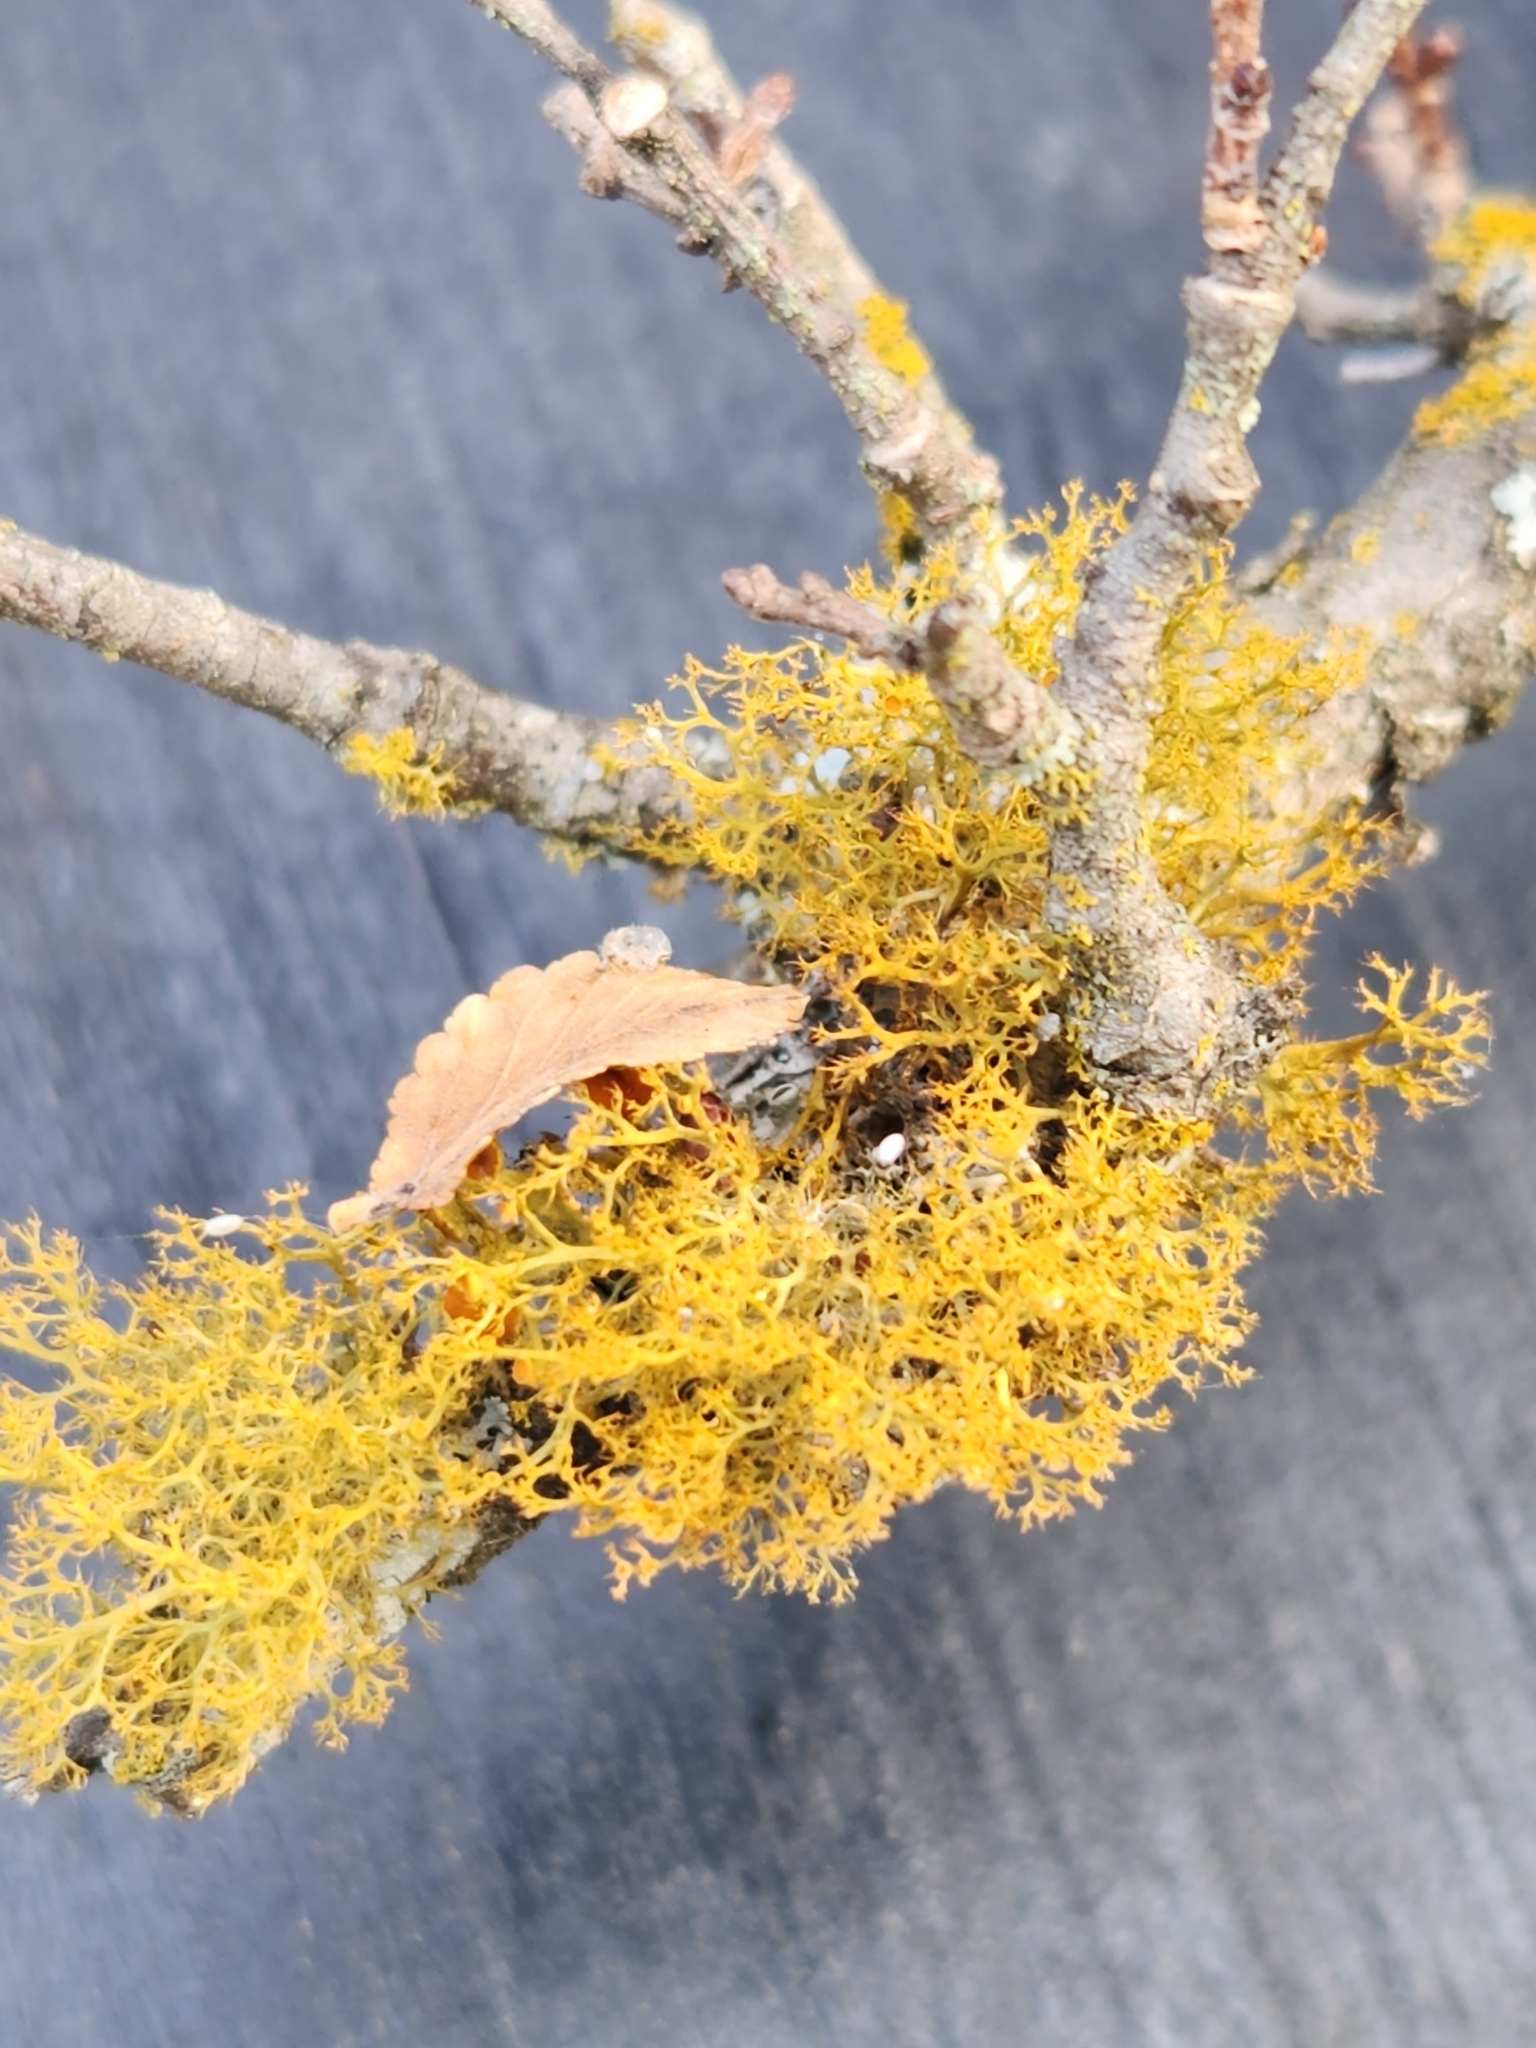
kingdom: Fungi
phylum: Ascomycota
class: Lecanoromycetes
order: Teloschistales
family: Teloschistaceae
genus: Teloschistes
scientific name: Teloschistes exilis
